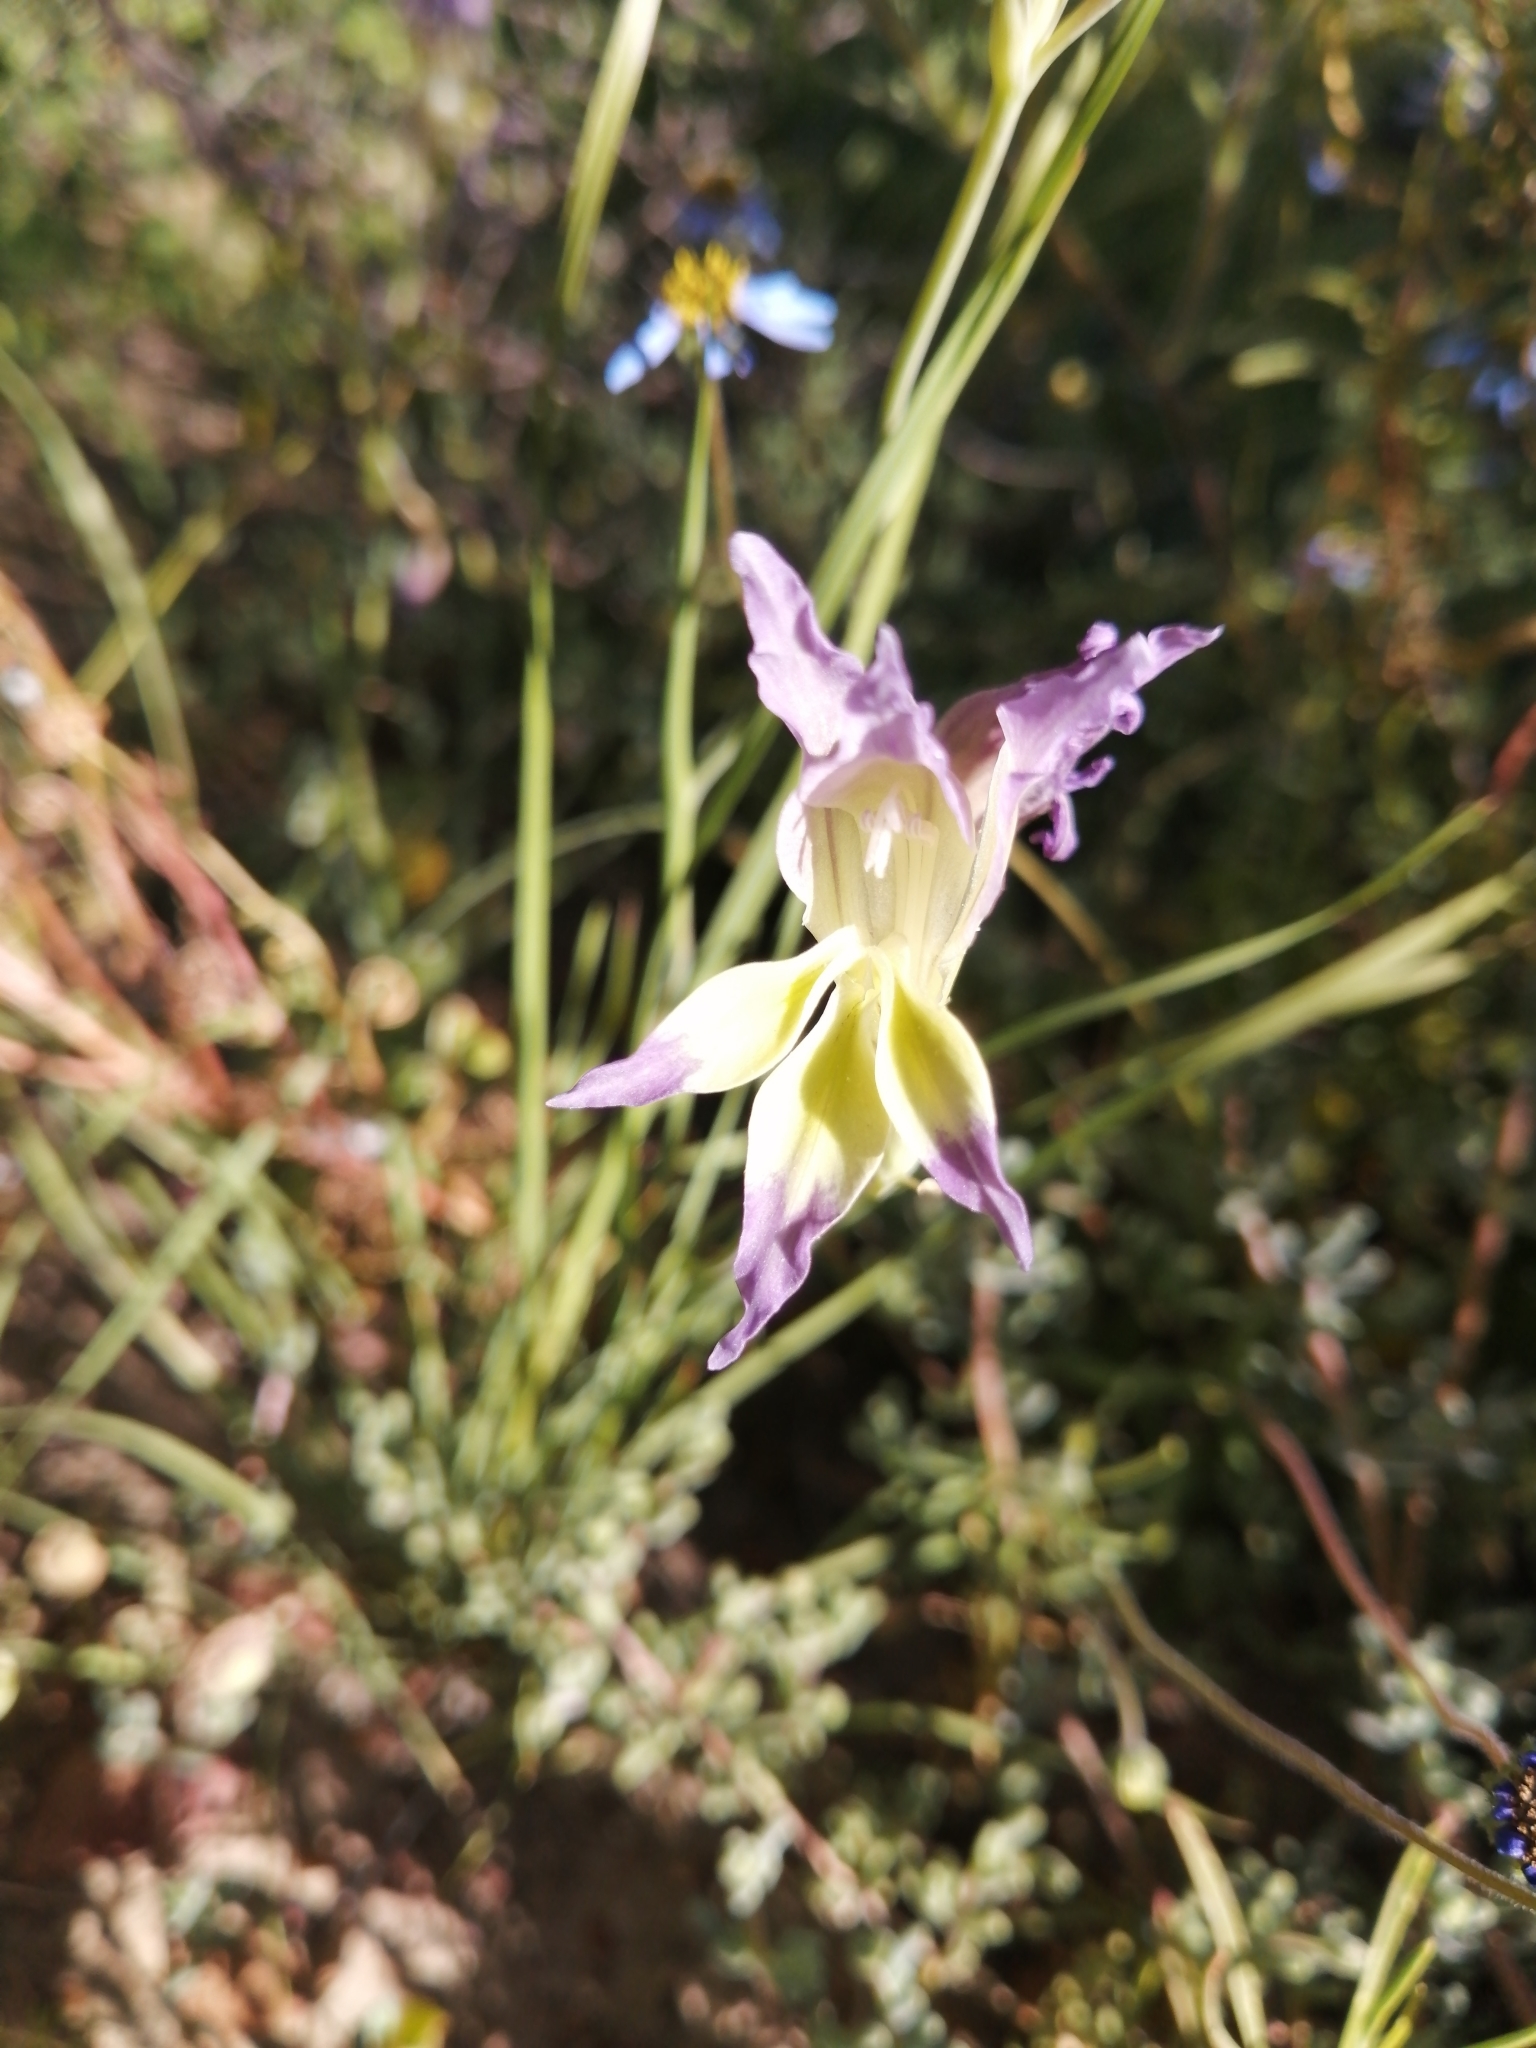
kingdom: Plantae
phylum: Tracheophyta
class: Liliopsida
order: Asparagales
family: Iridaceae
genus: Gladiolus
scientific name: Gladiolus venustus
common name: Purple kalkoentjie
